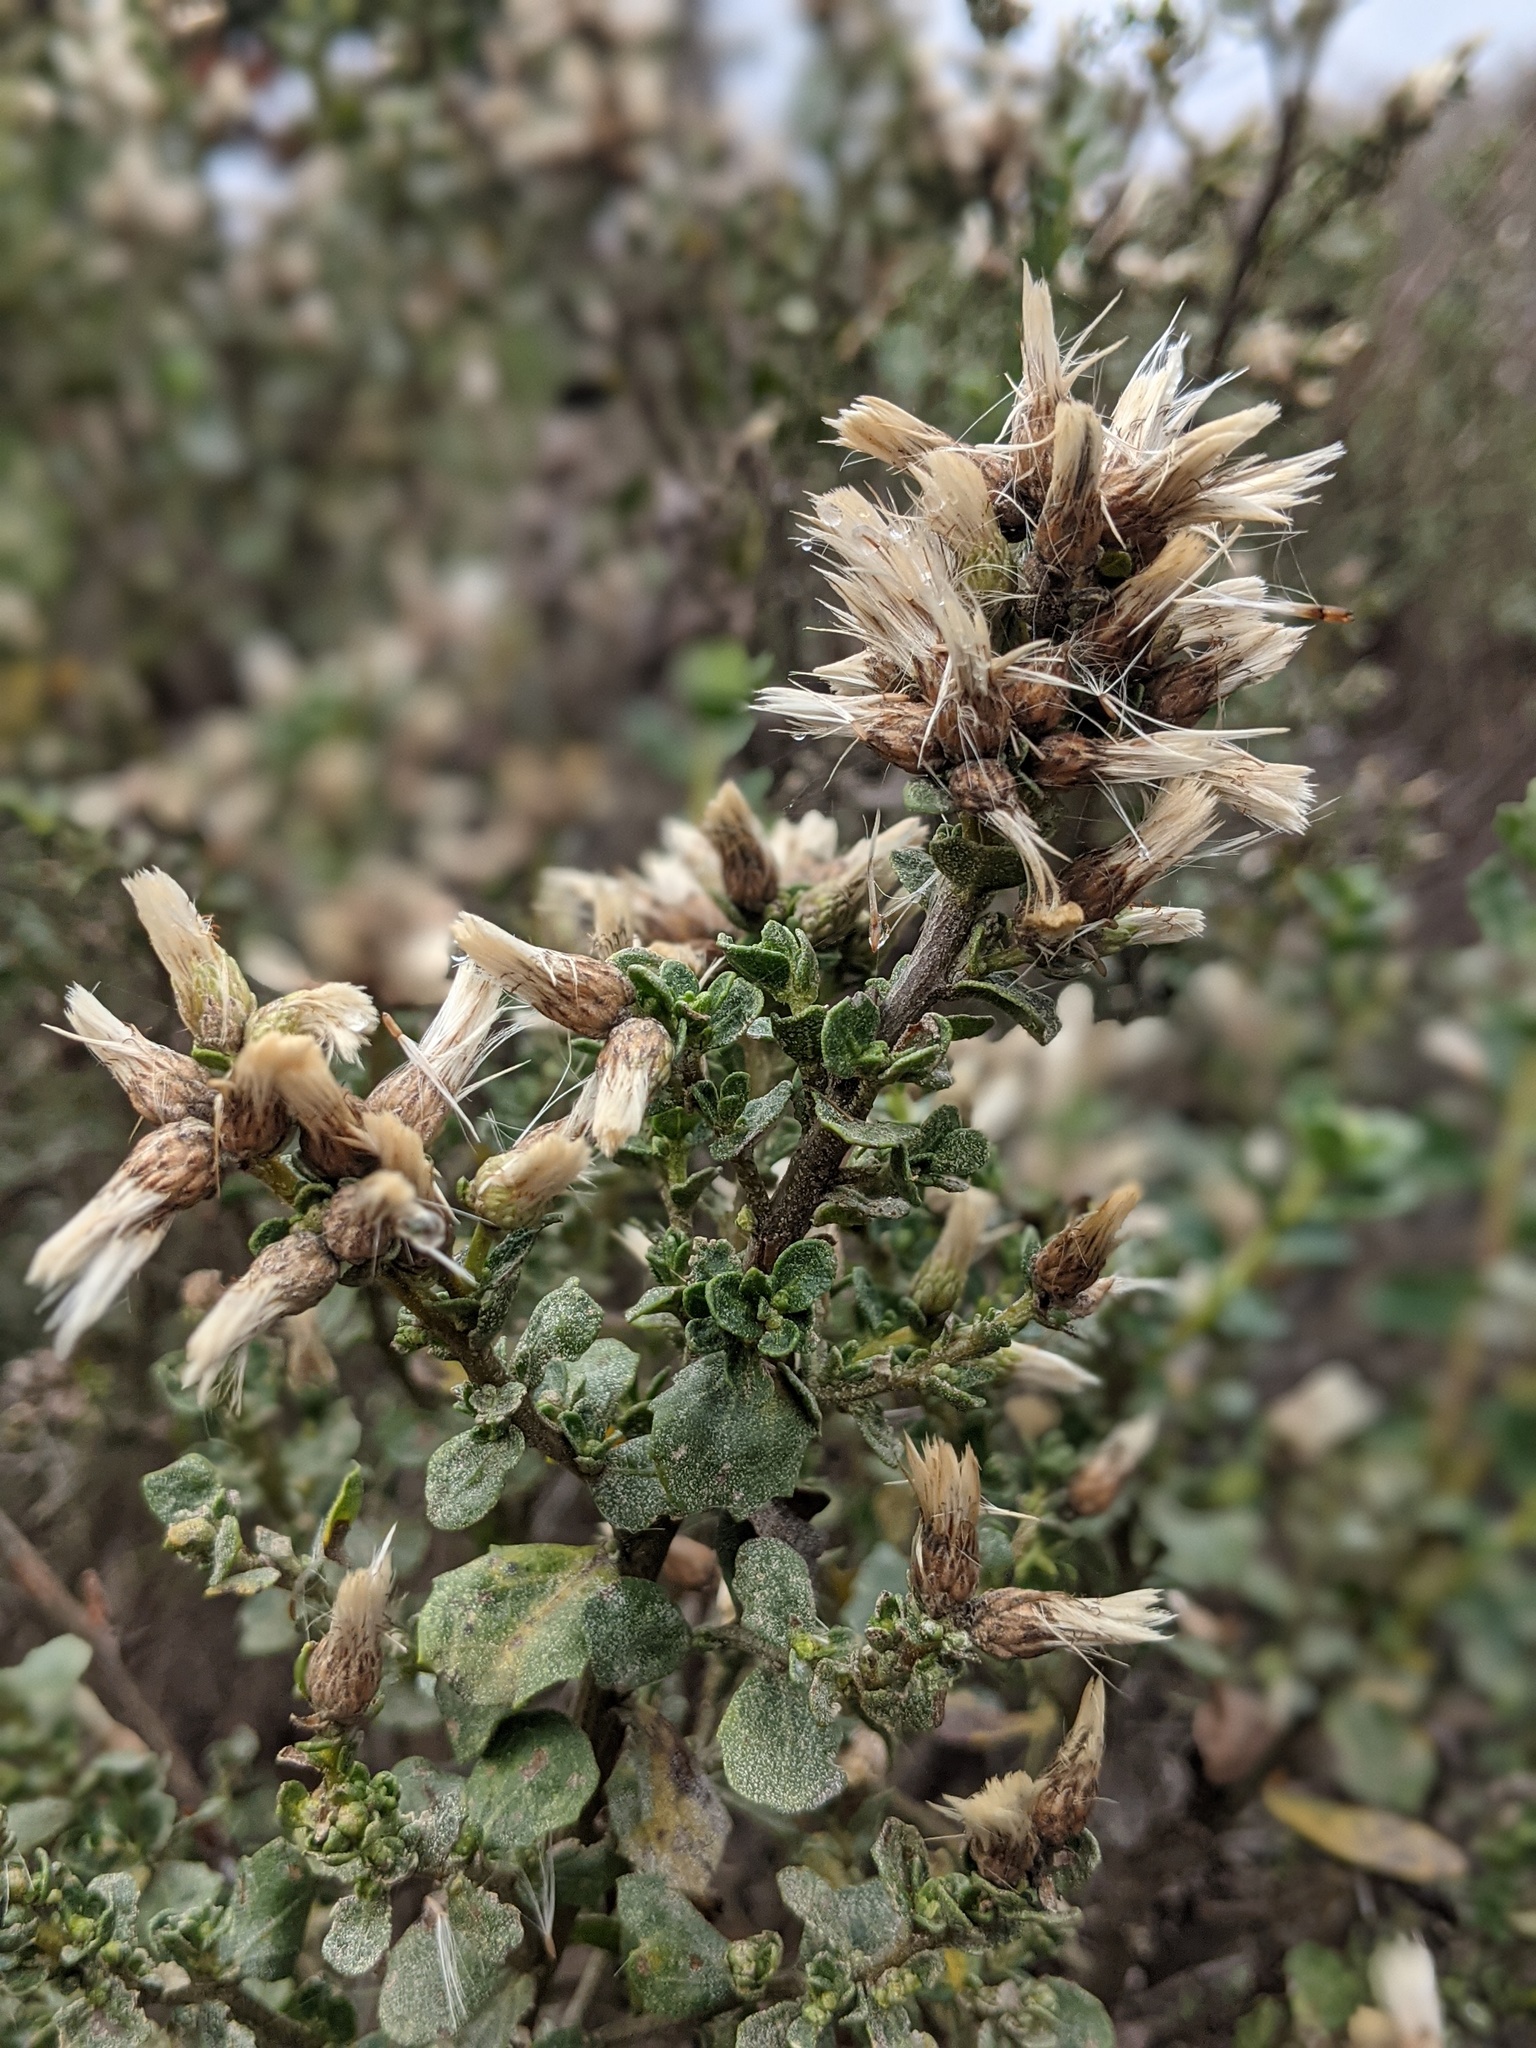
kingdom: Plantae
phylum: Tracheophyta
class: Magnoliopsida
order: Asterales
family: Asteraceae
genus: Baccharis
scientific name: Baccharis pilularis
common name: Coyotebrush
